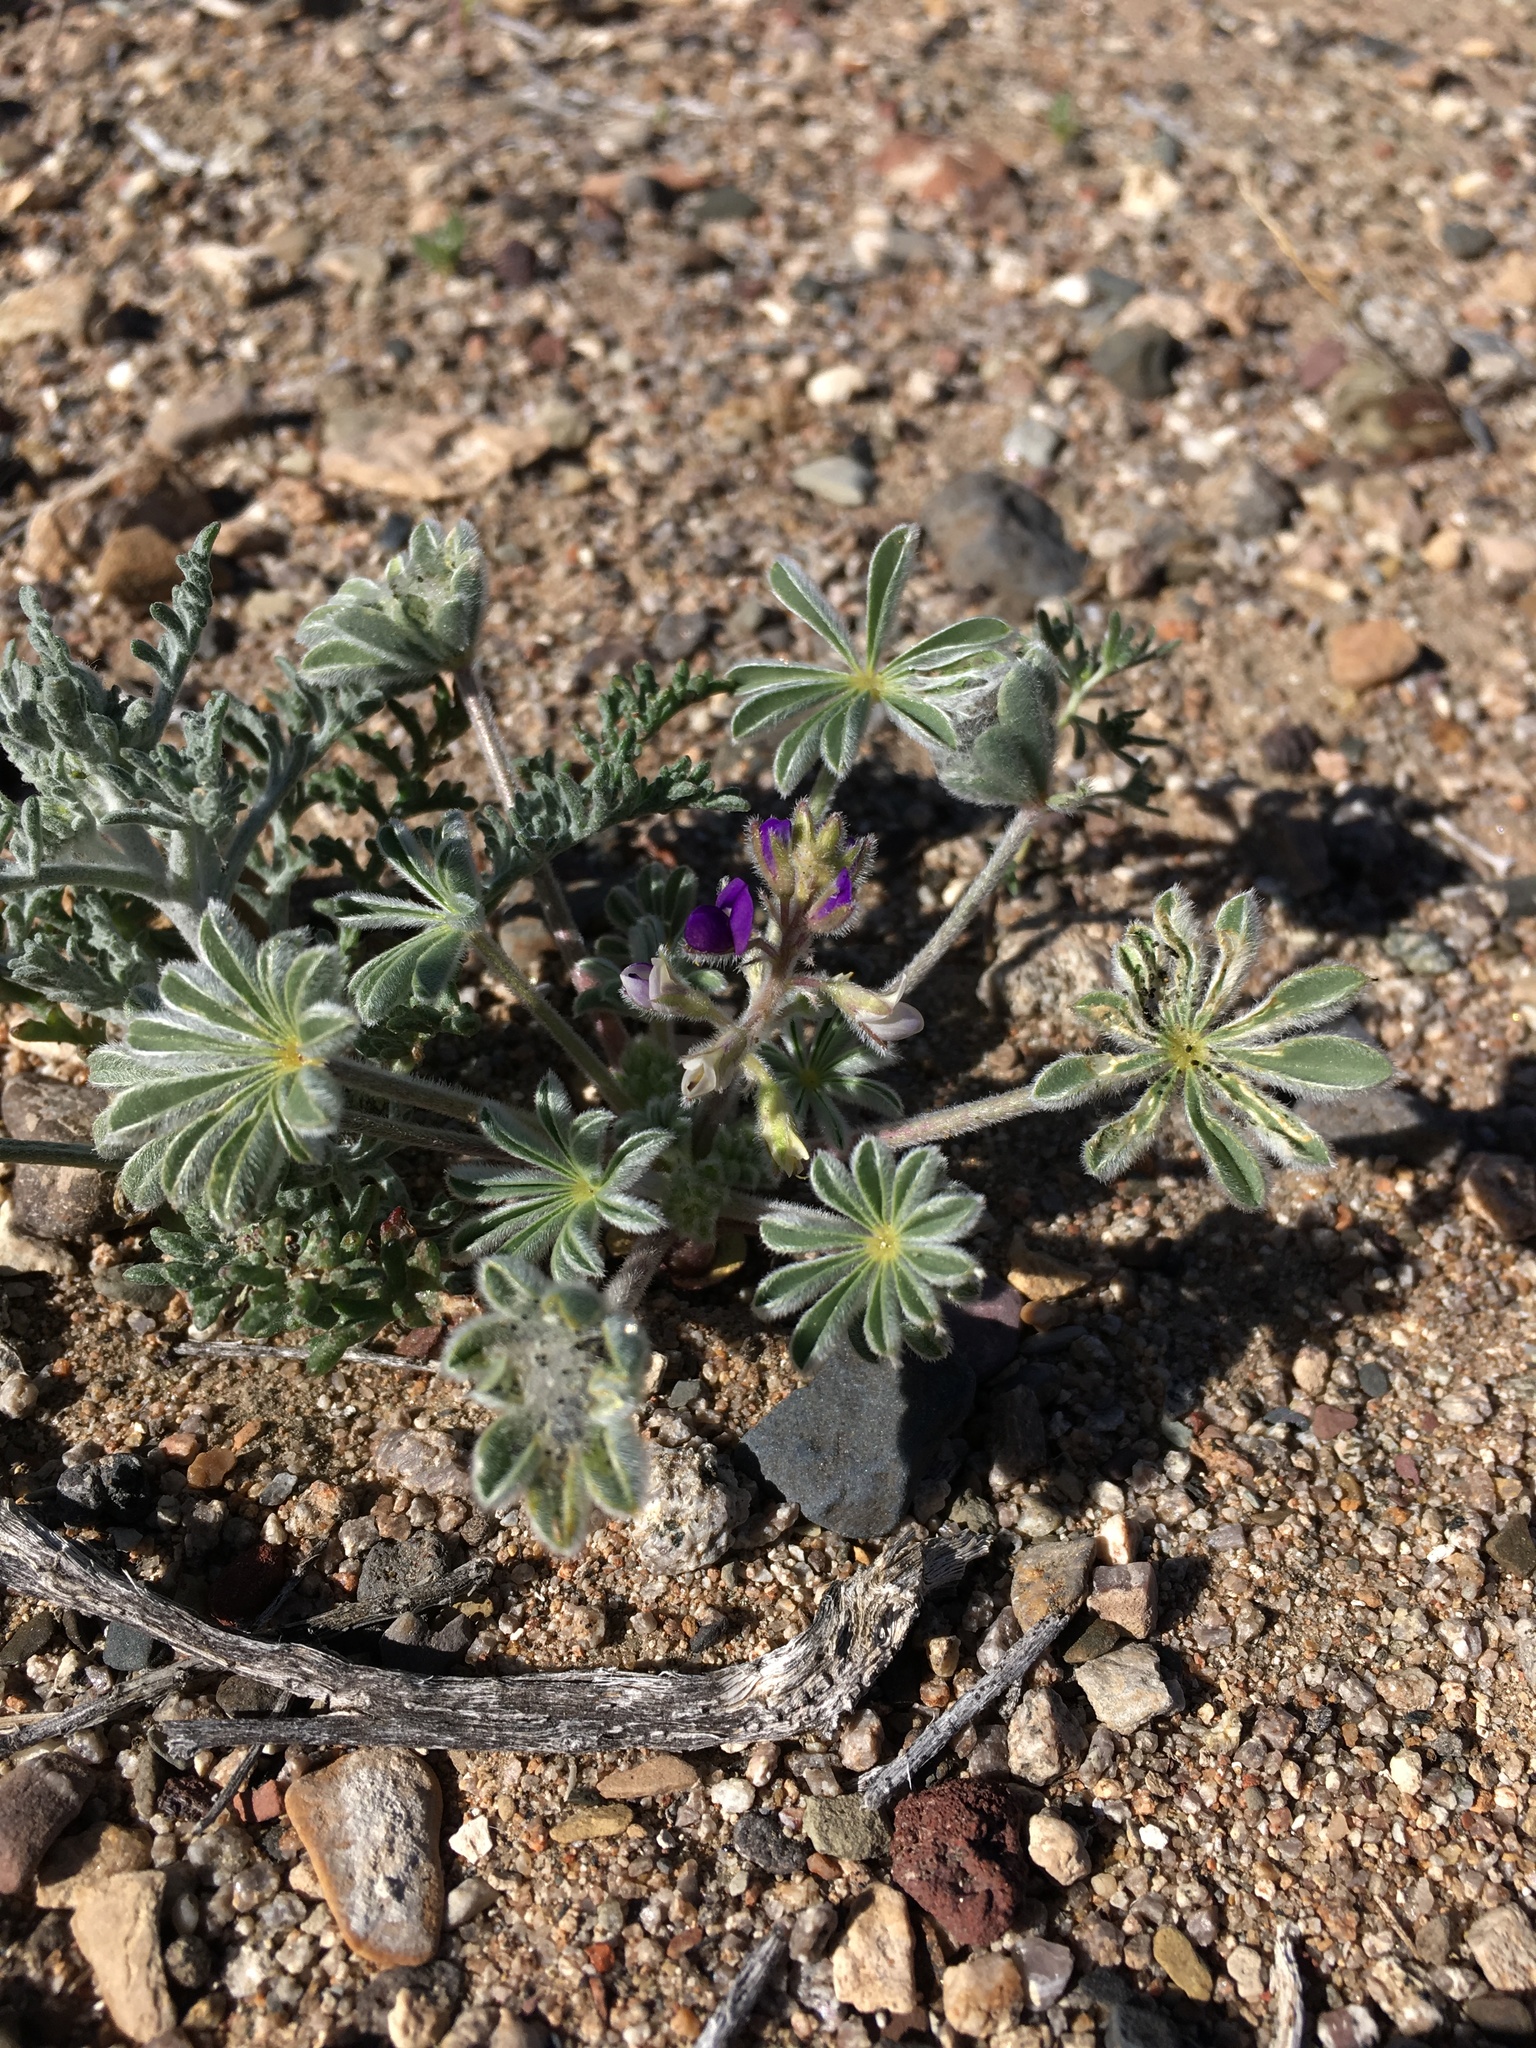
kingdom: Plantae
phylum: Tracheophyta
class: Magnoliopsida
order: Fabales
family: Fabaceae
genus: Lupinus
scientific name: Lupinus shockleyi
